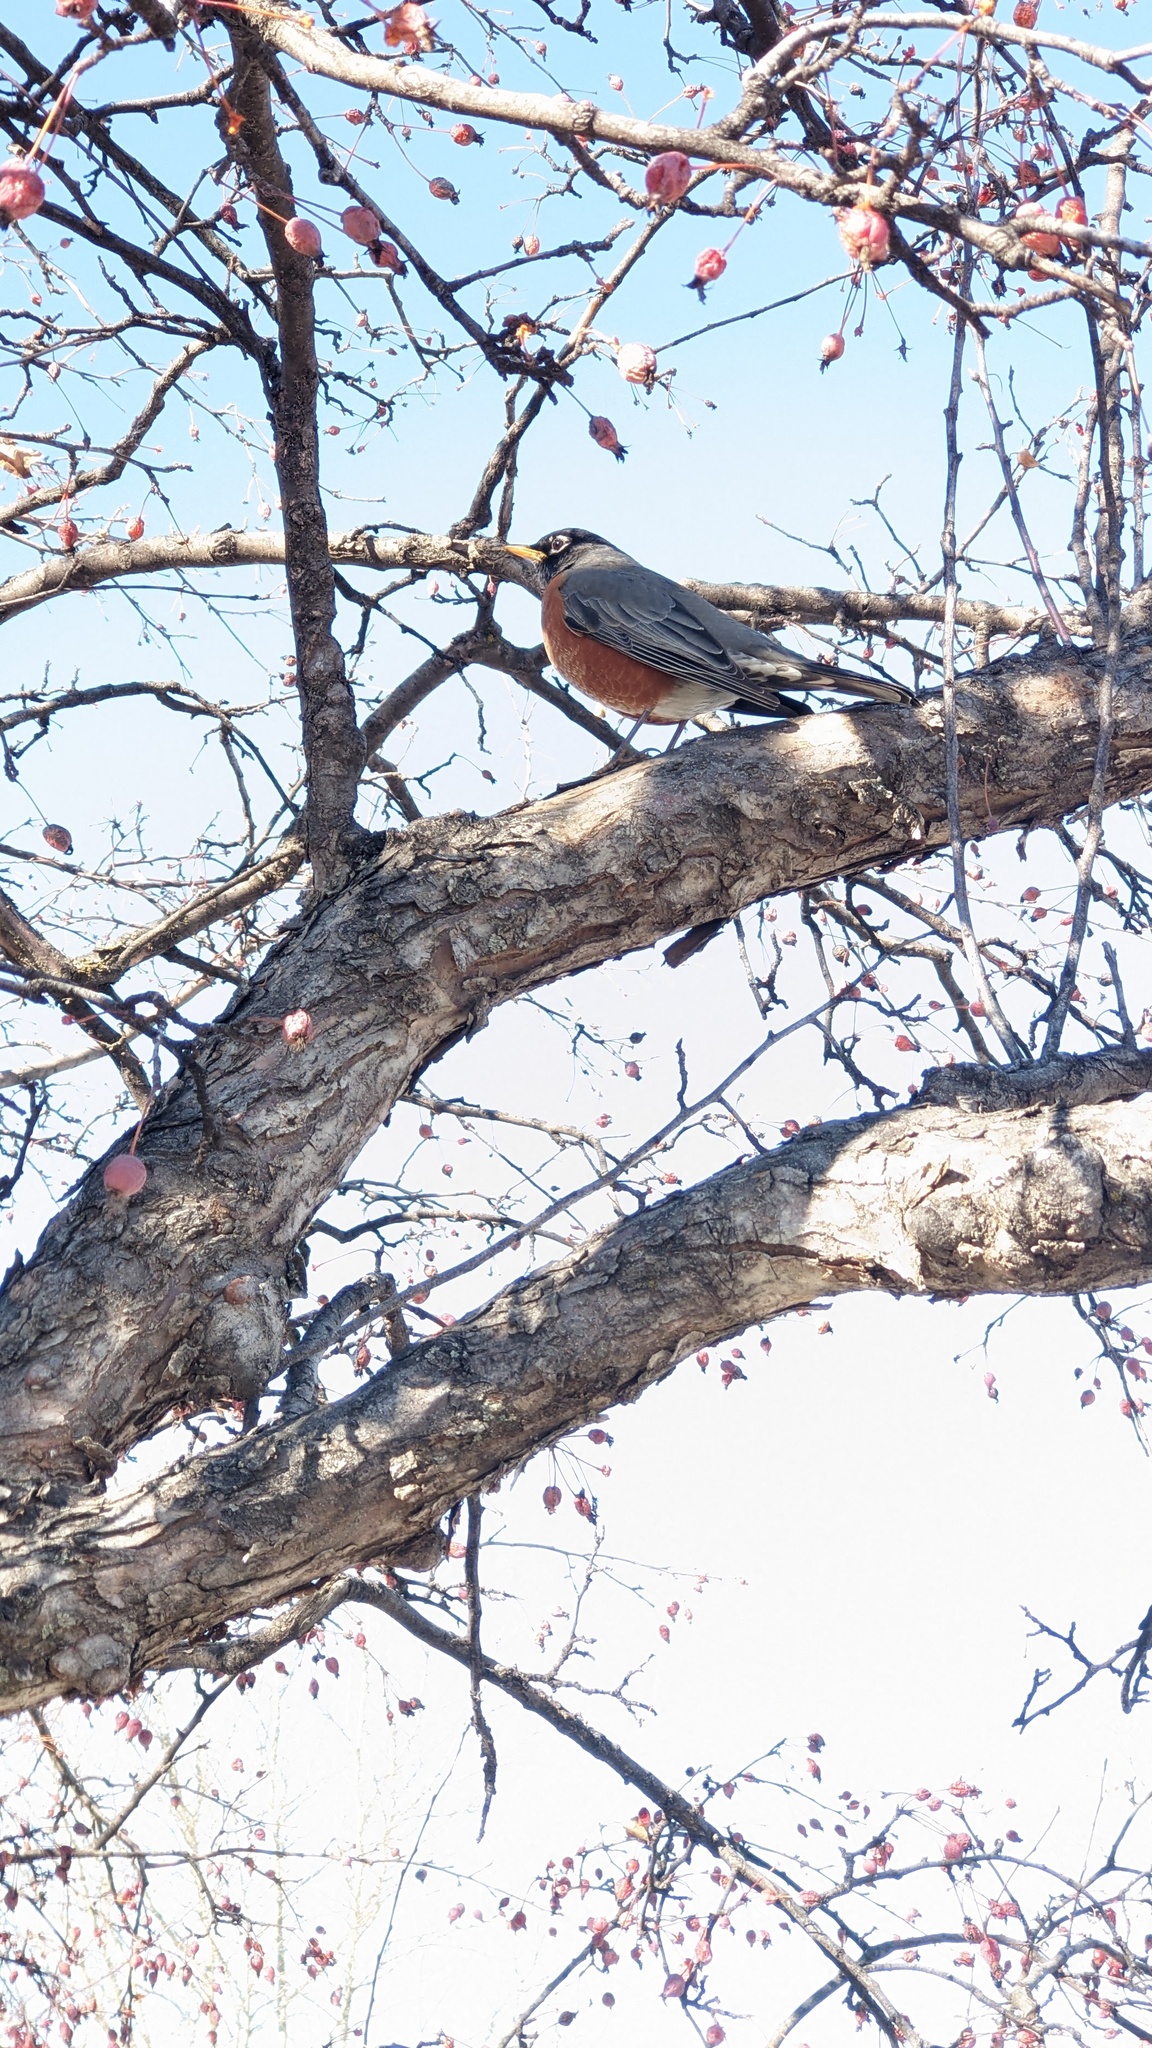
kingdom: Animalia
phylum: Chordata
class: Aves
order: Passeriformes
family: Turdidae
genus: Turdus
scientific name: Turdus migratorius
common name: American robin
